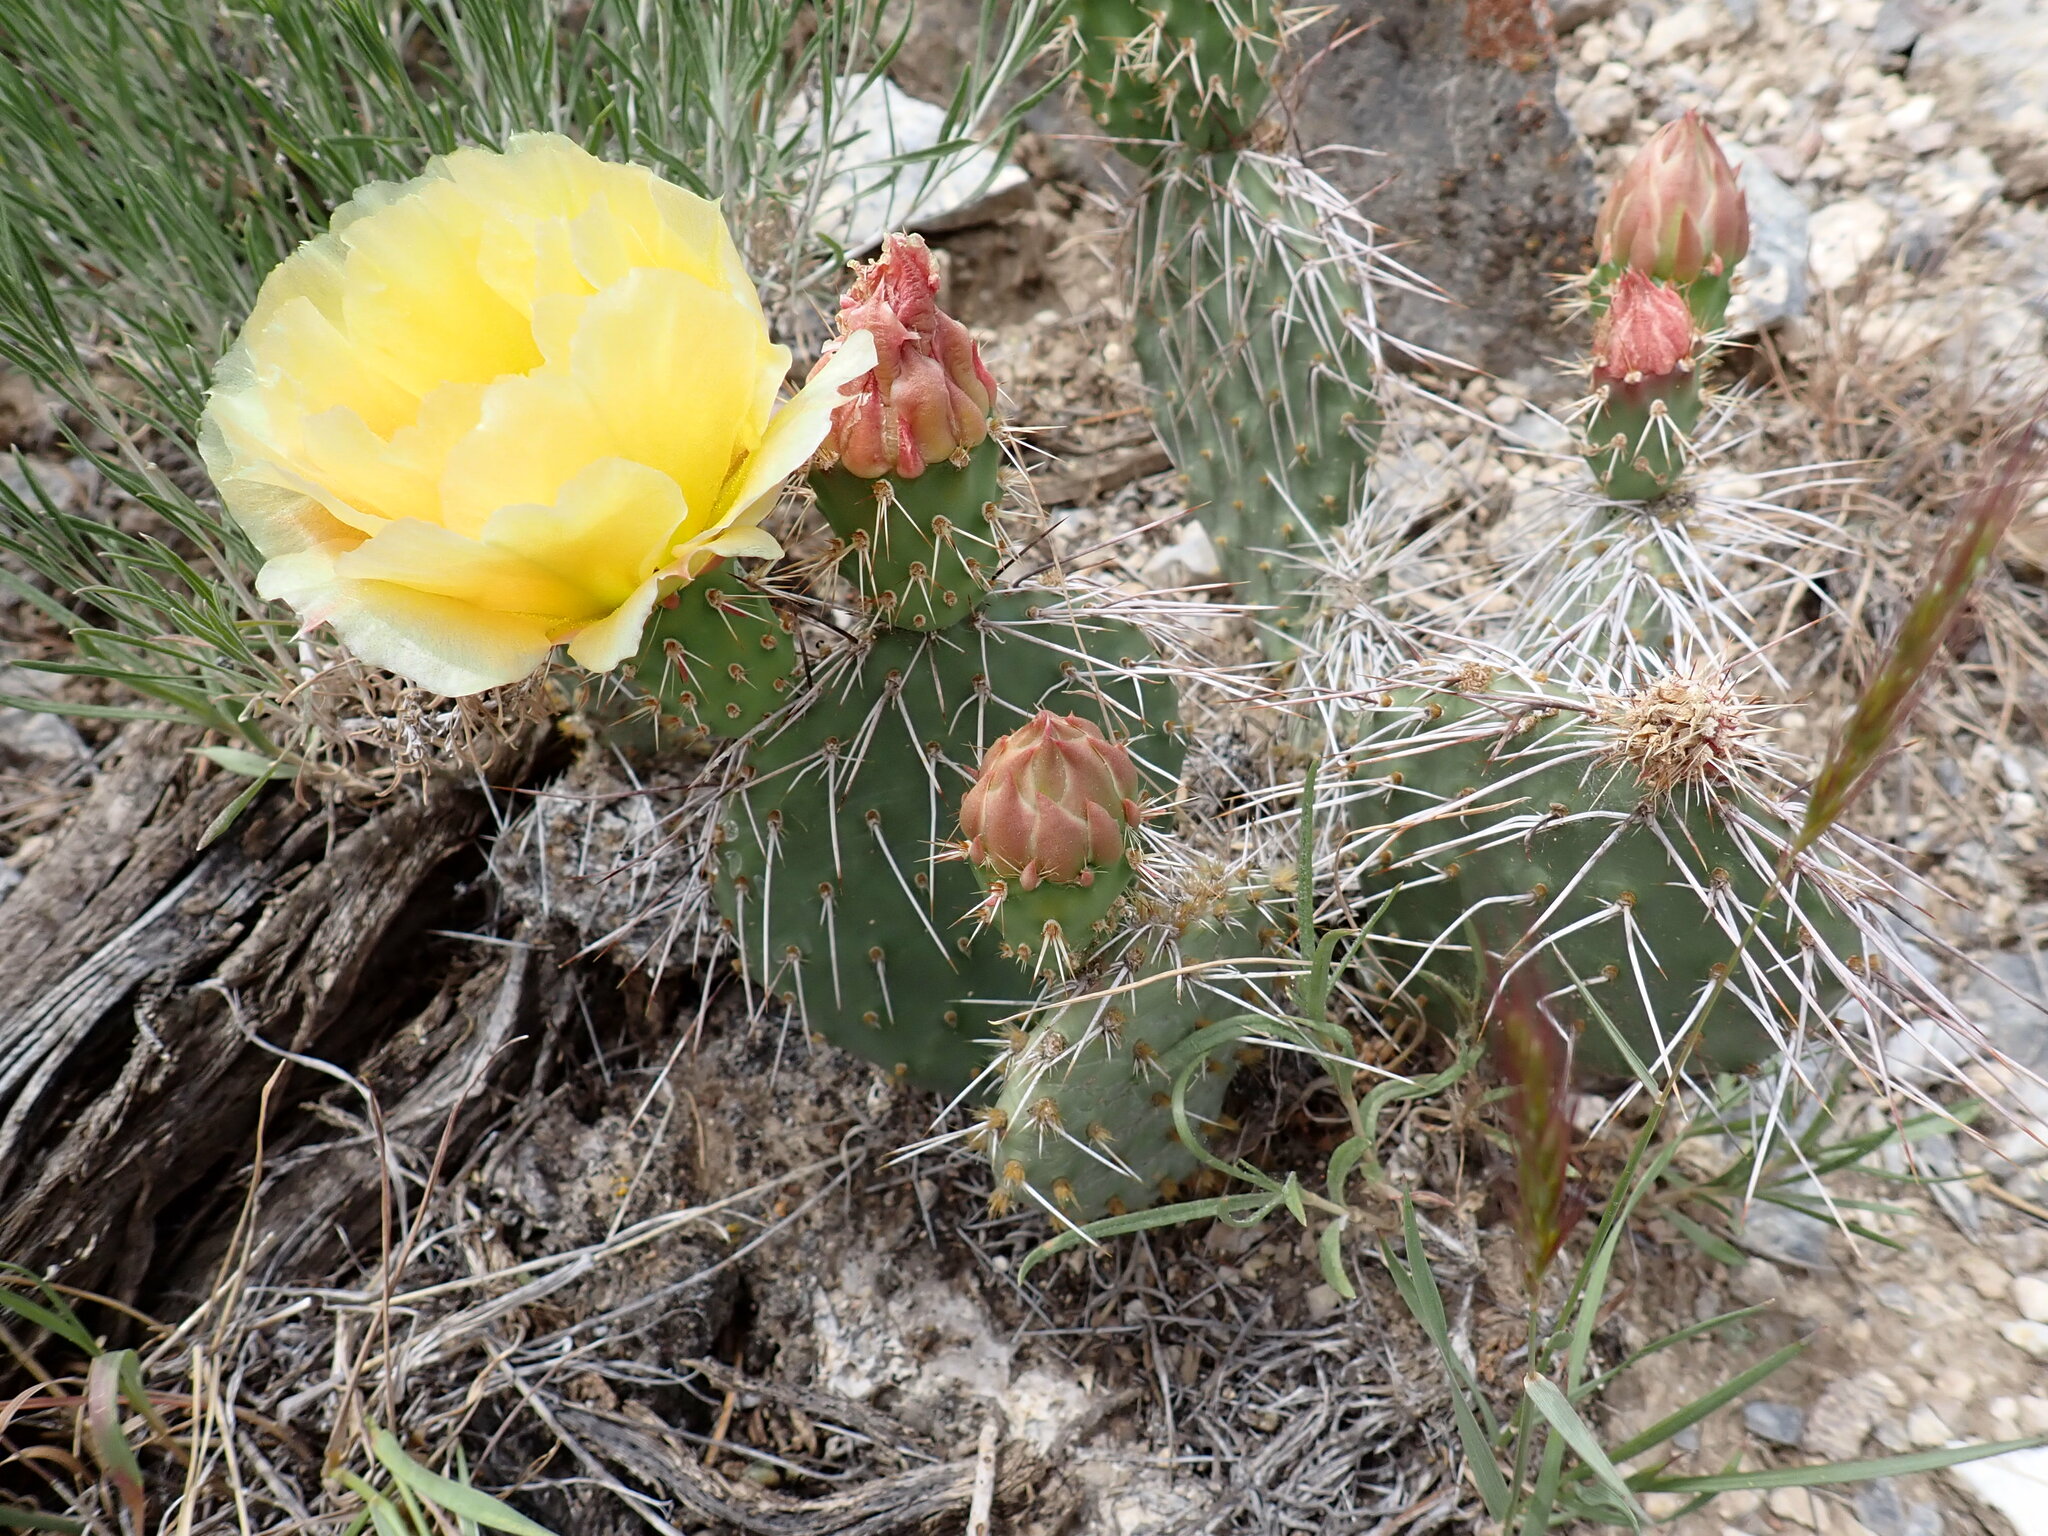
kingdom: Plantae
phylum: Tracheophyta
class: Magnoliopsida
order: Caryophyllales
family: Cactaceae
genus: Opuntia
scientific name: Opuntia polyacantha
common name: Plains prickly-pear
